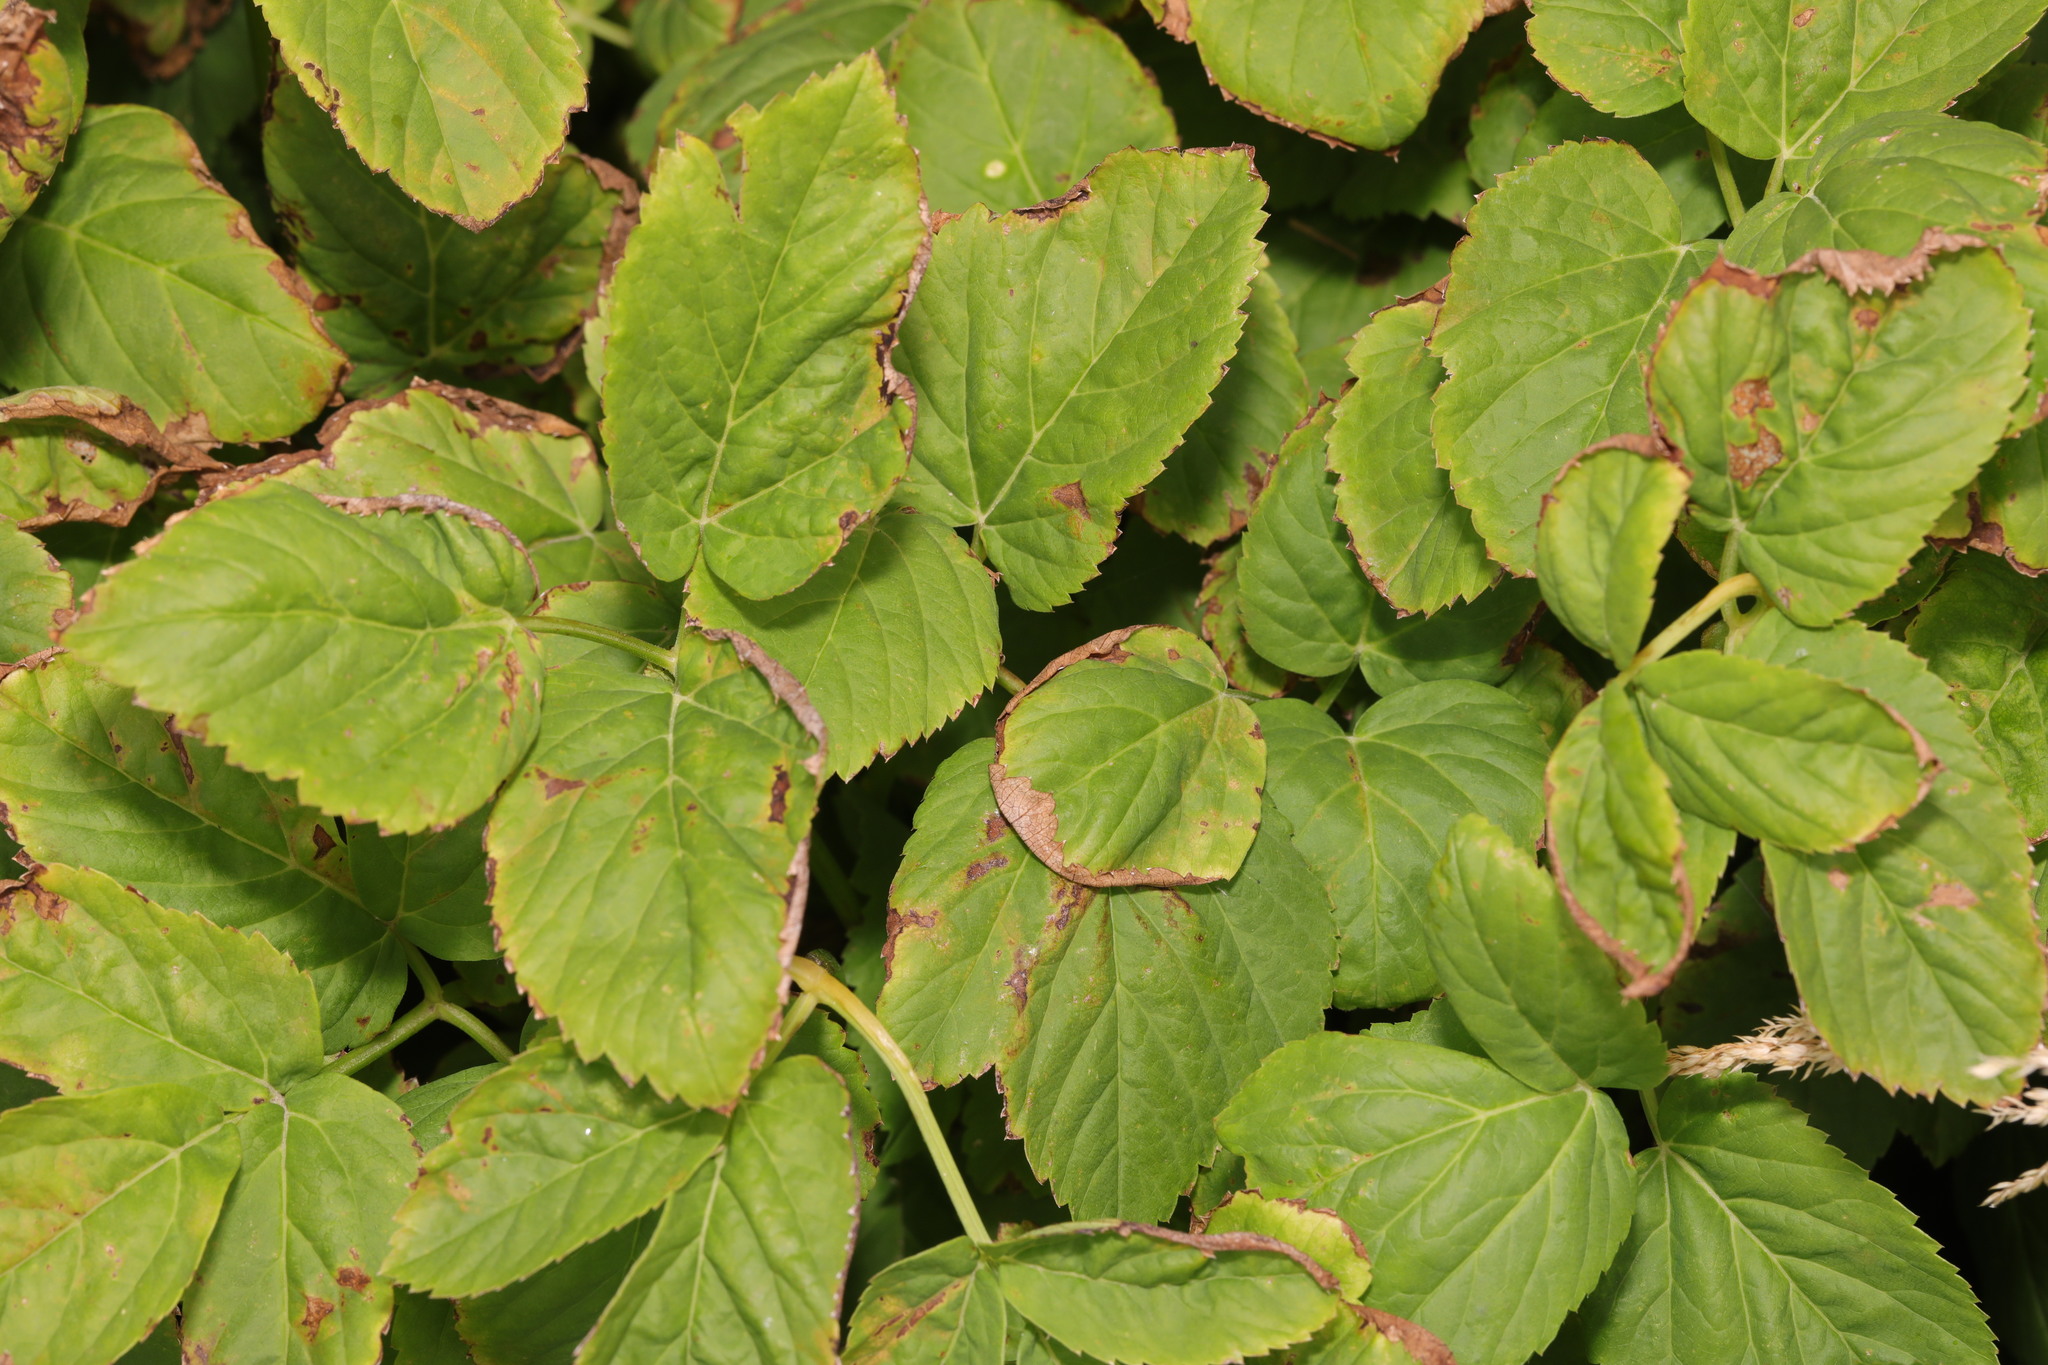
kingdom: Plantae
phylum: Tracheophyta
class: Magnoliopsida
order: Apiales
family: Apiaceae
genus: Aegopodium
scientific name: Aegopodium podagraria
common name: Ground-elder
